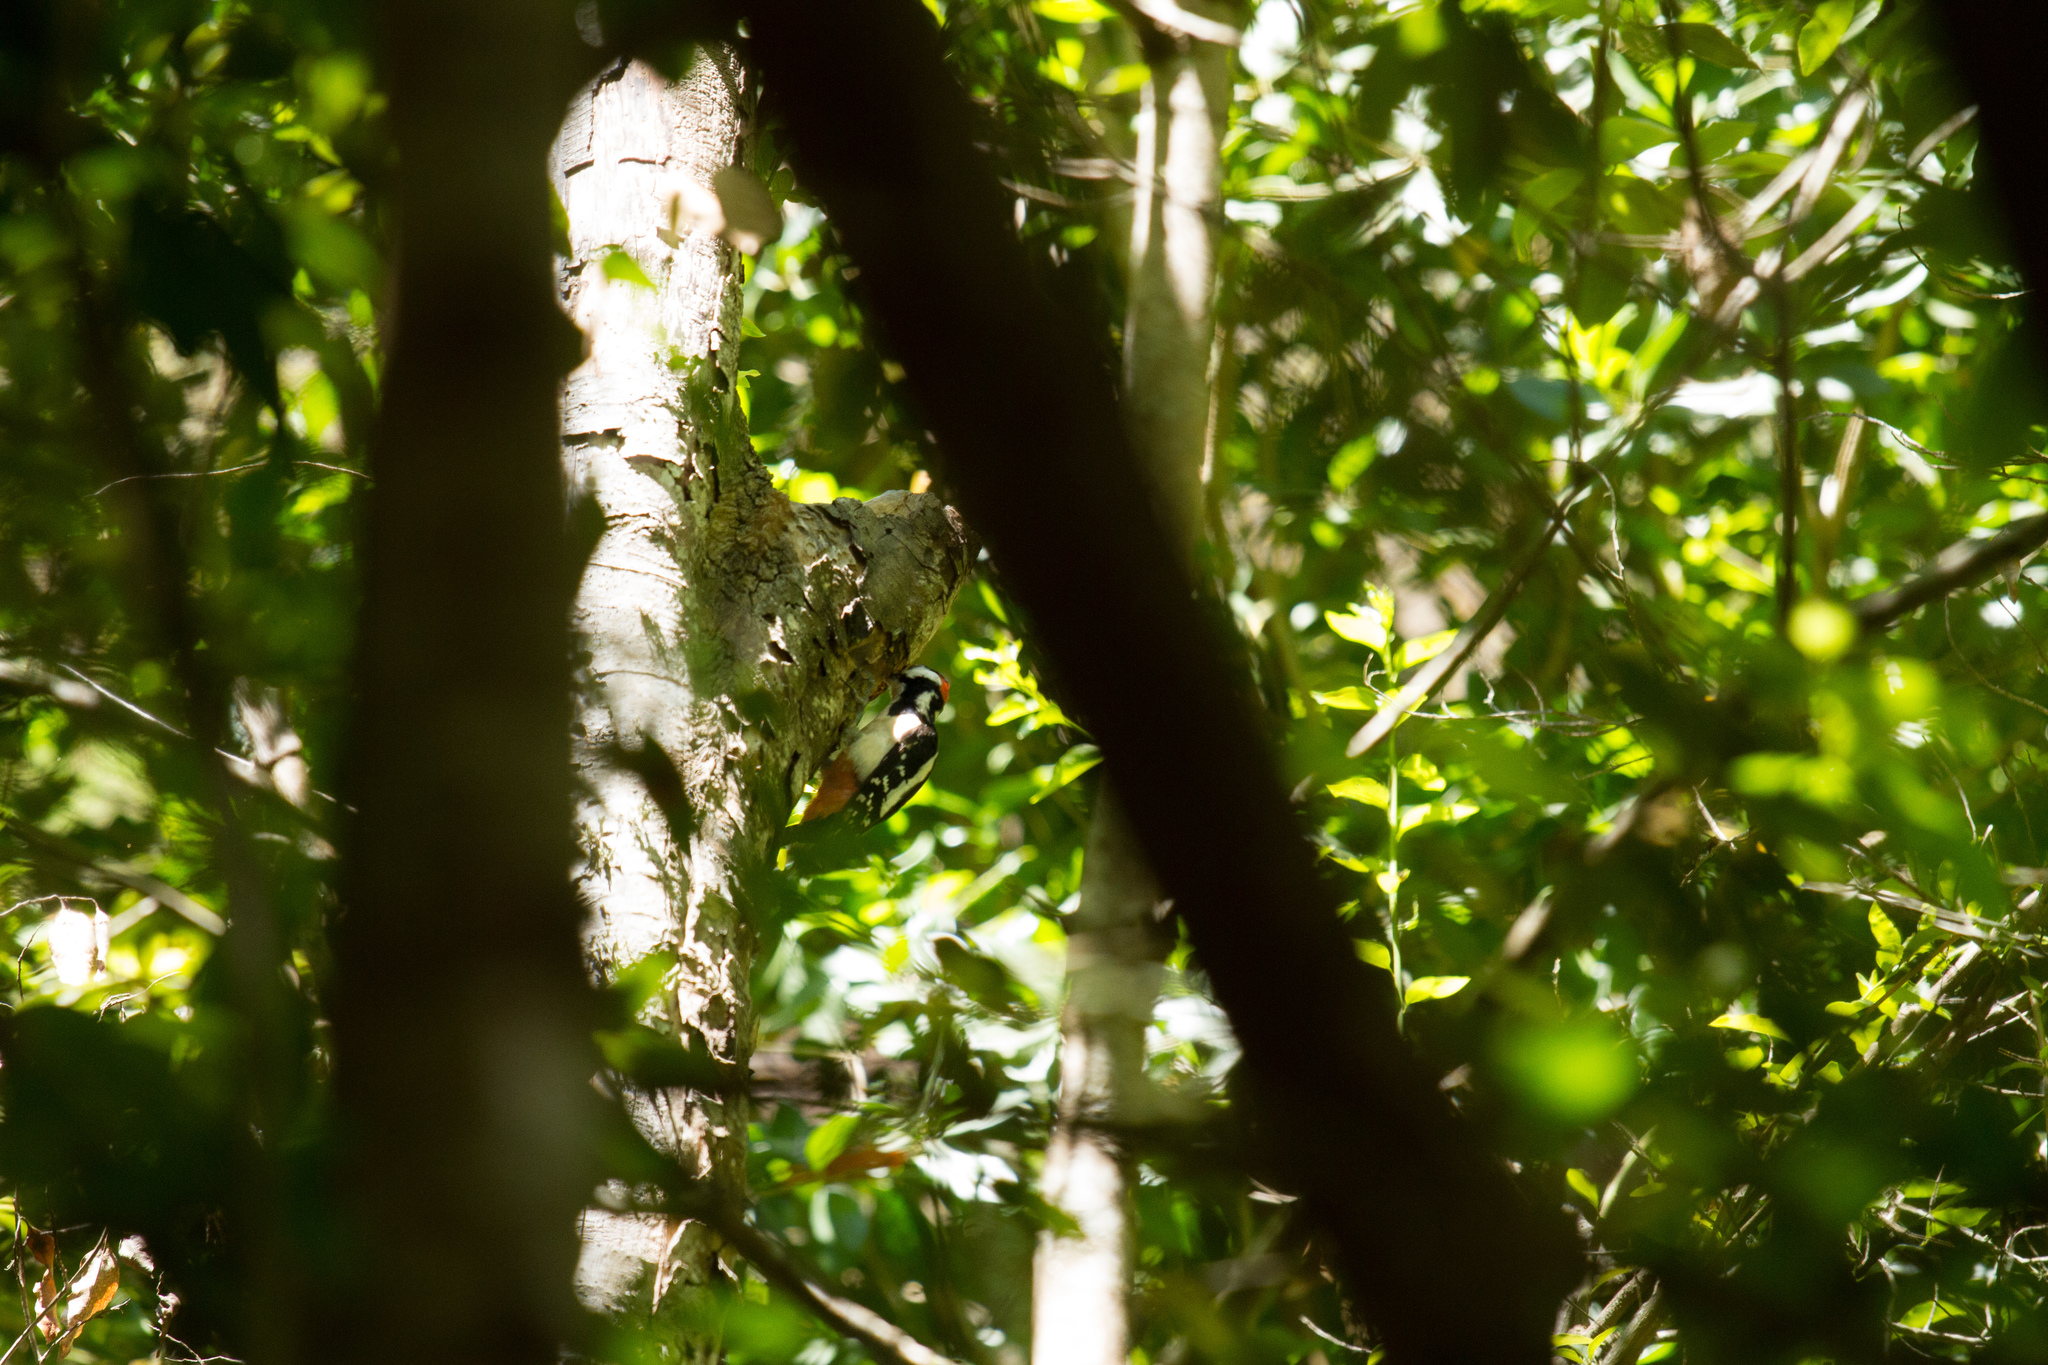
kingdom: Animalia
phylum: Chordata
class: Aves
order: Piciformes
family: Picidae
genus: Dendrocopos
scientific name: Dendrocopos major
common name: Great spotted woodpecker
